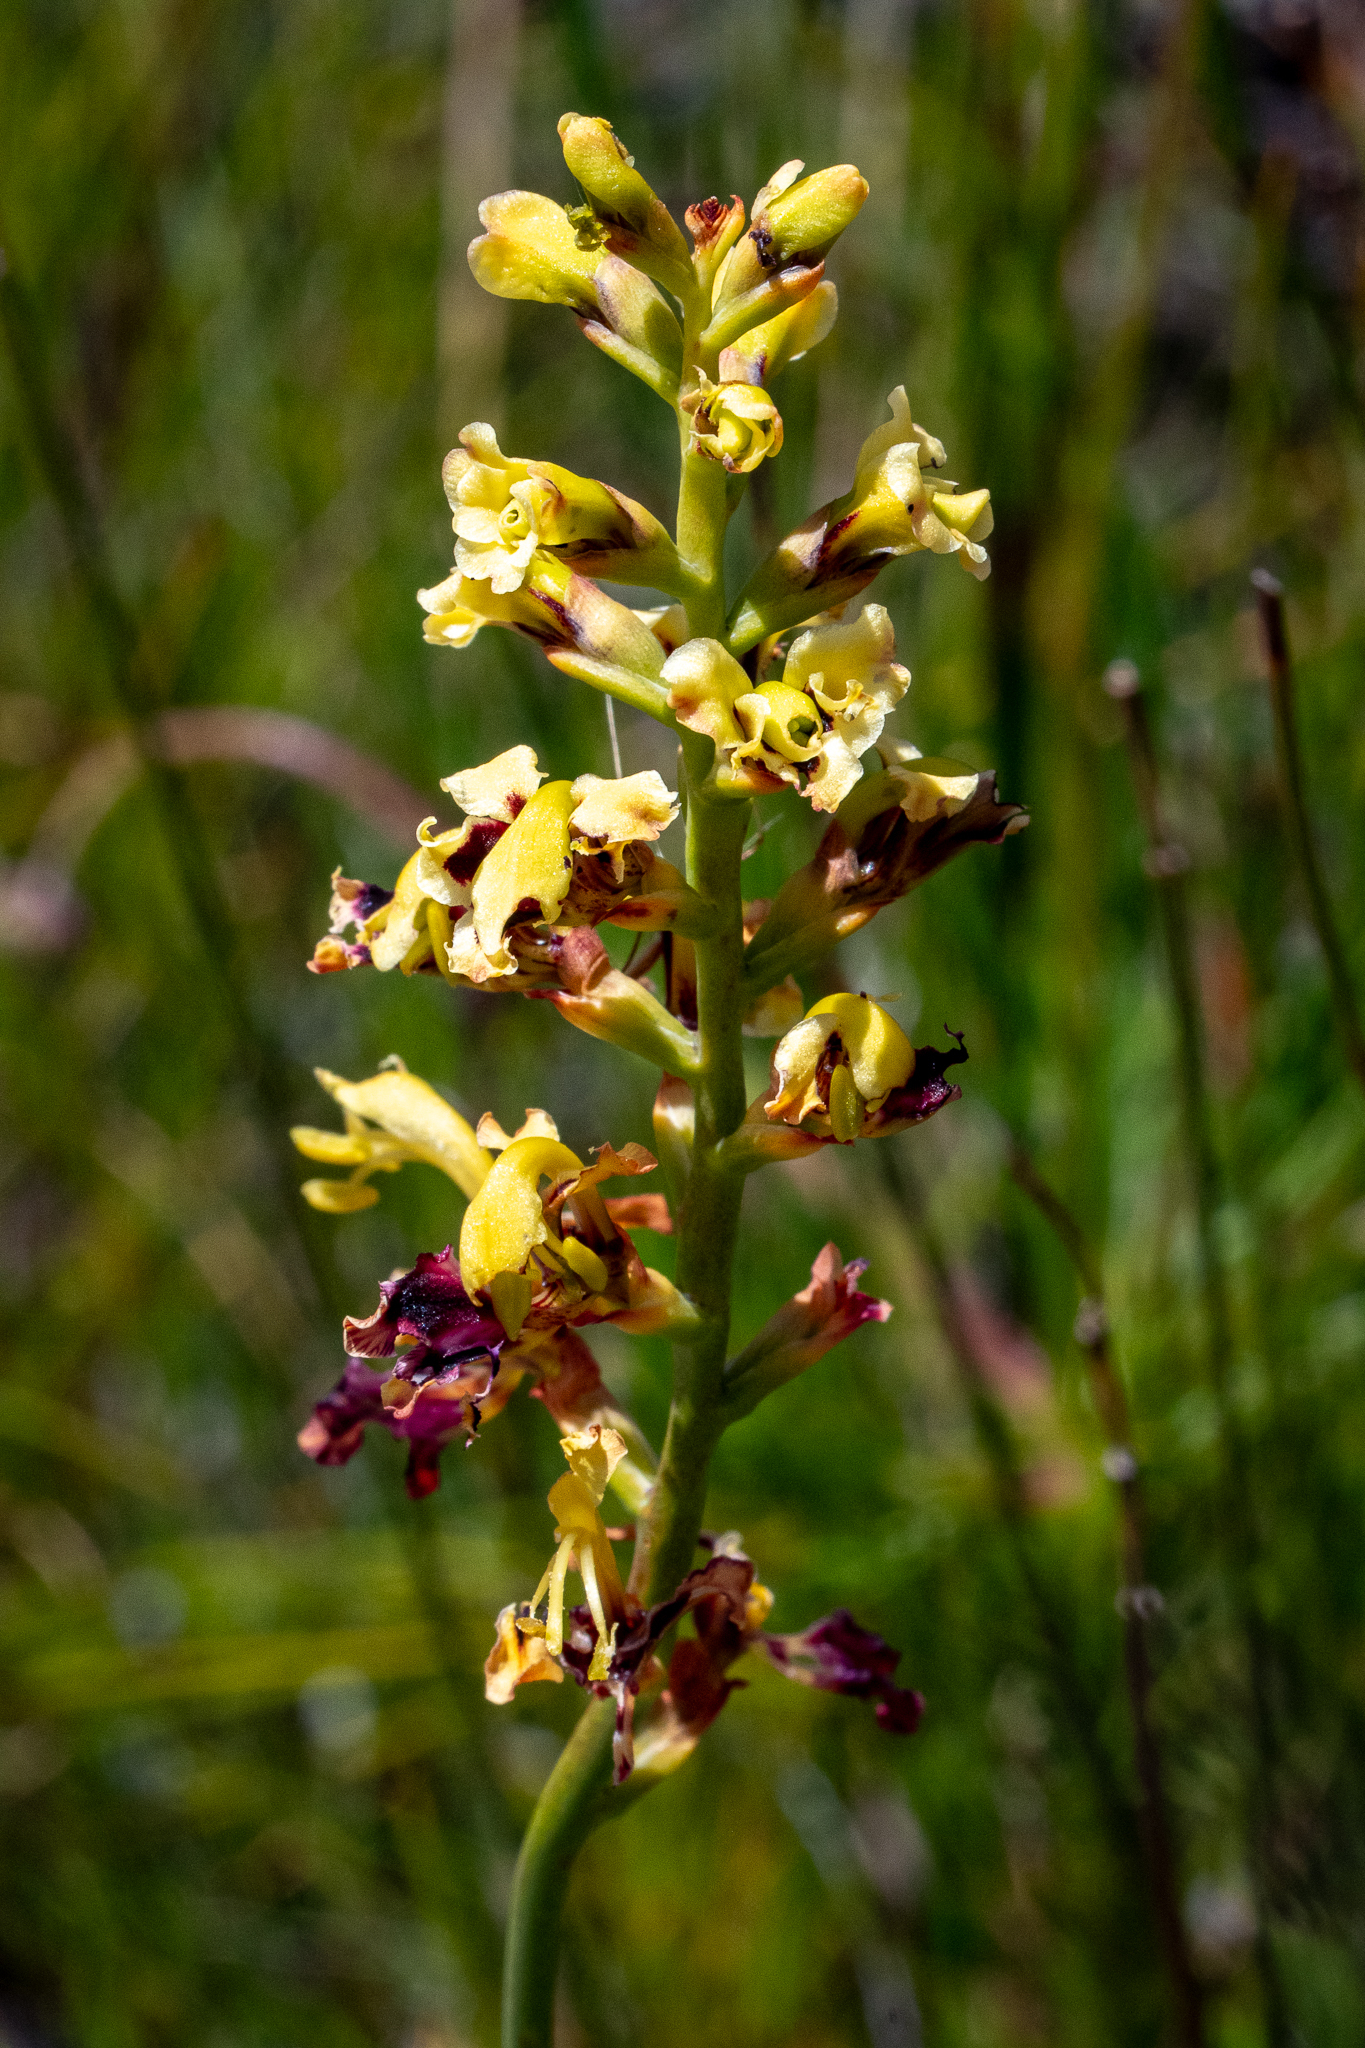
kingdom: Plantae
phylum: Tracheophyta
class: Liliopsida
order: Asparagales
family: Iridaceae
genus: Tritoniopsis
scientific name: Tritoniopsis parviflora
